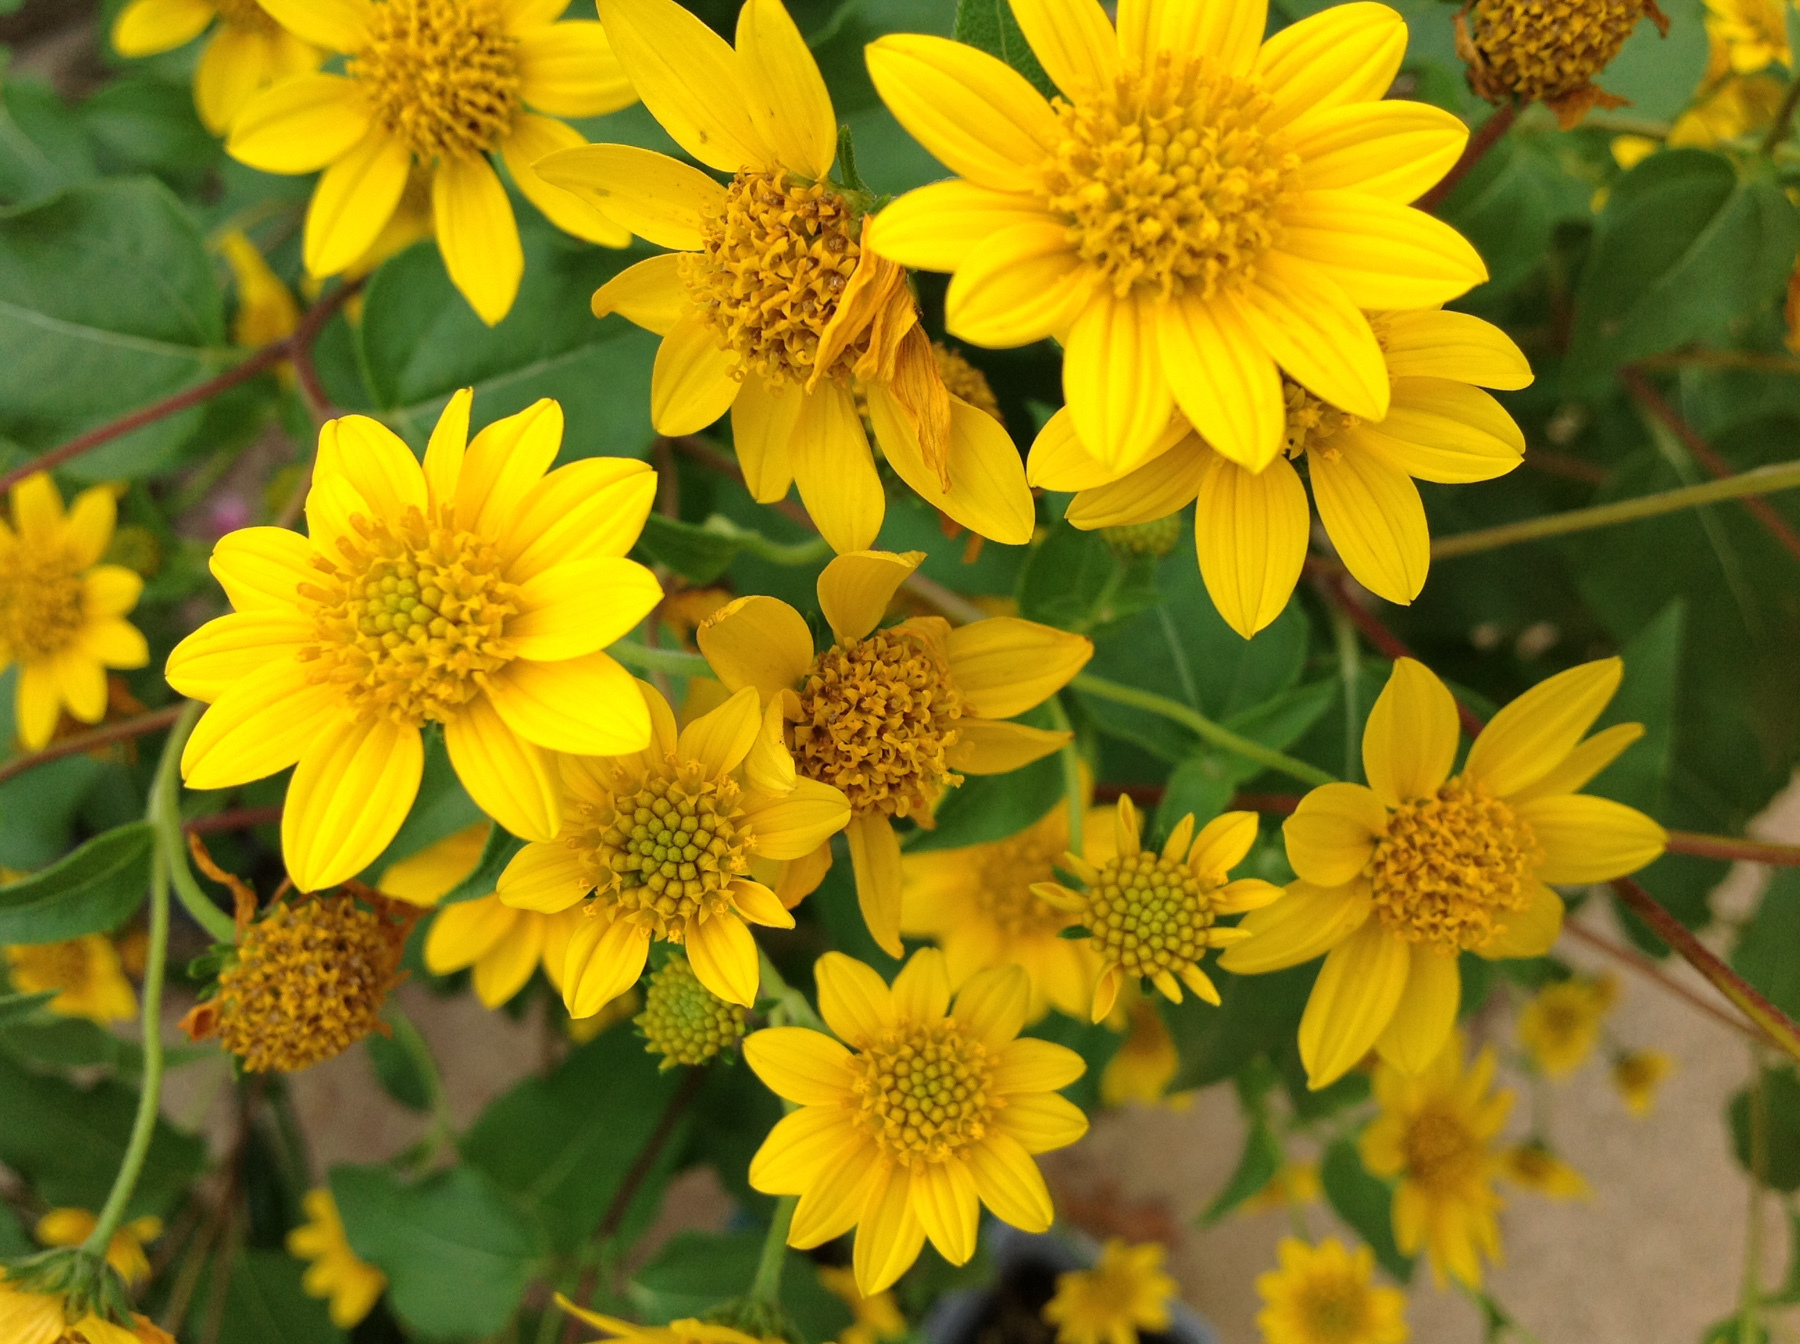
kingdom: Plantae
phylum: Tracheophyta
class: Magnoliopsida
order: Asterales
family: Asteraceae
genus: Viguiera
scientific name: Viguiera dentata
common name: Toothleaf
